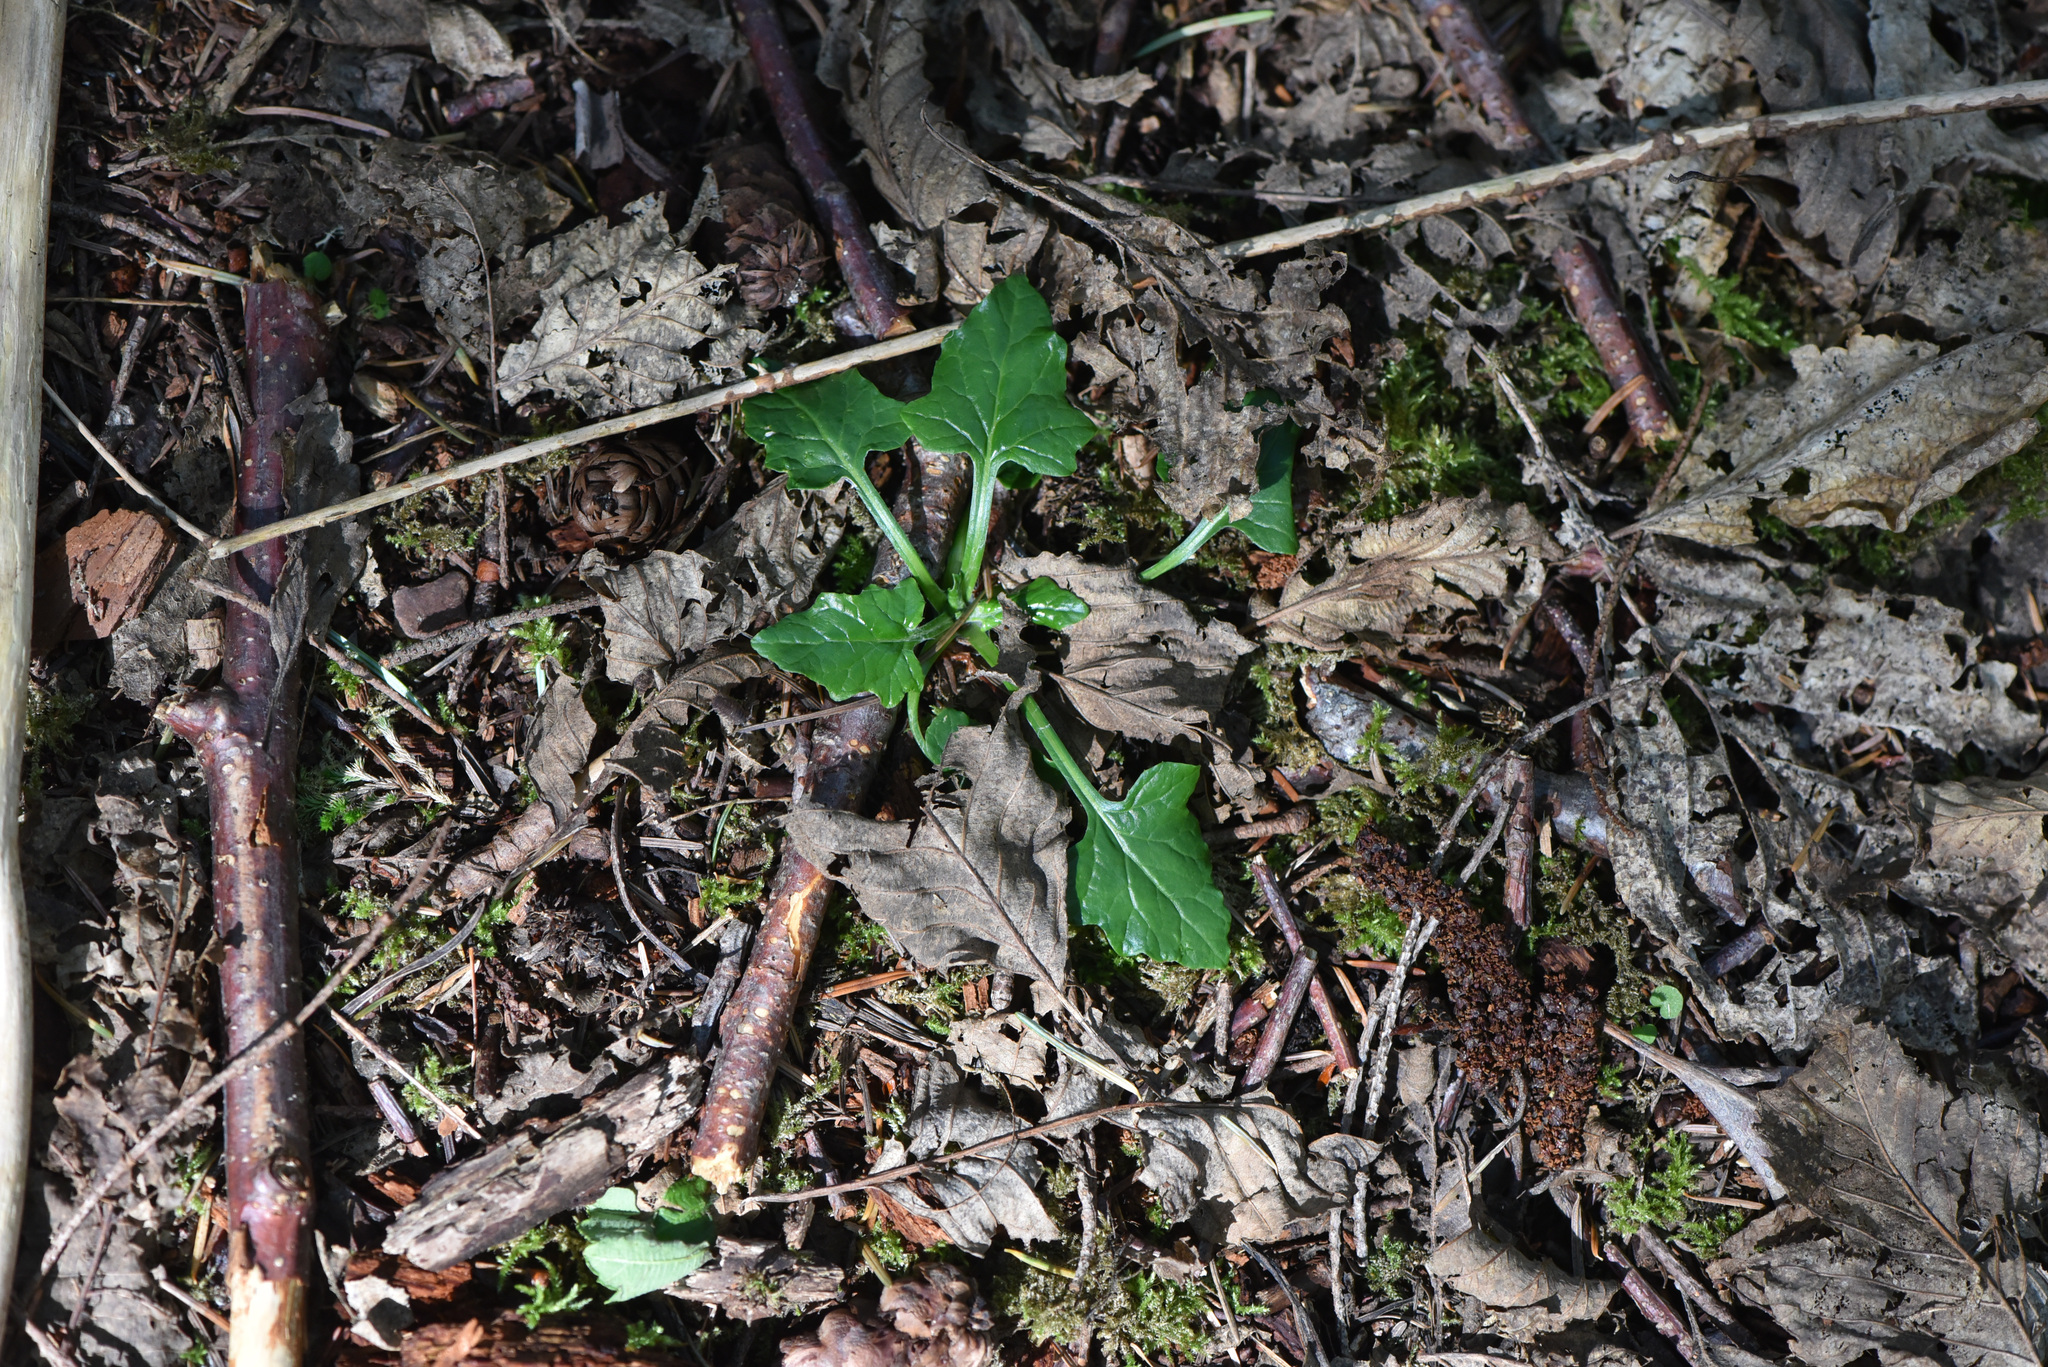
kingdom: Plantae
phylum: Tracheophyta
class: Magnoliopsida
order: Asterales
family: Asteraceae
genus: Adenocaulon
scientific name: Adenocaulon bicolor
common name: Trailplant
